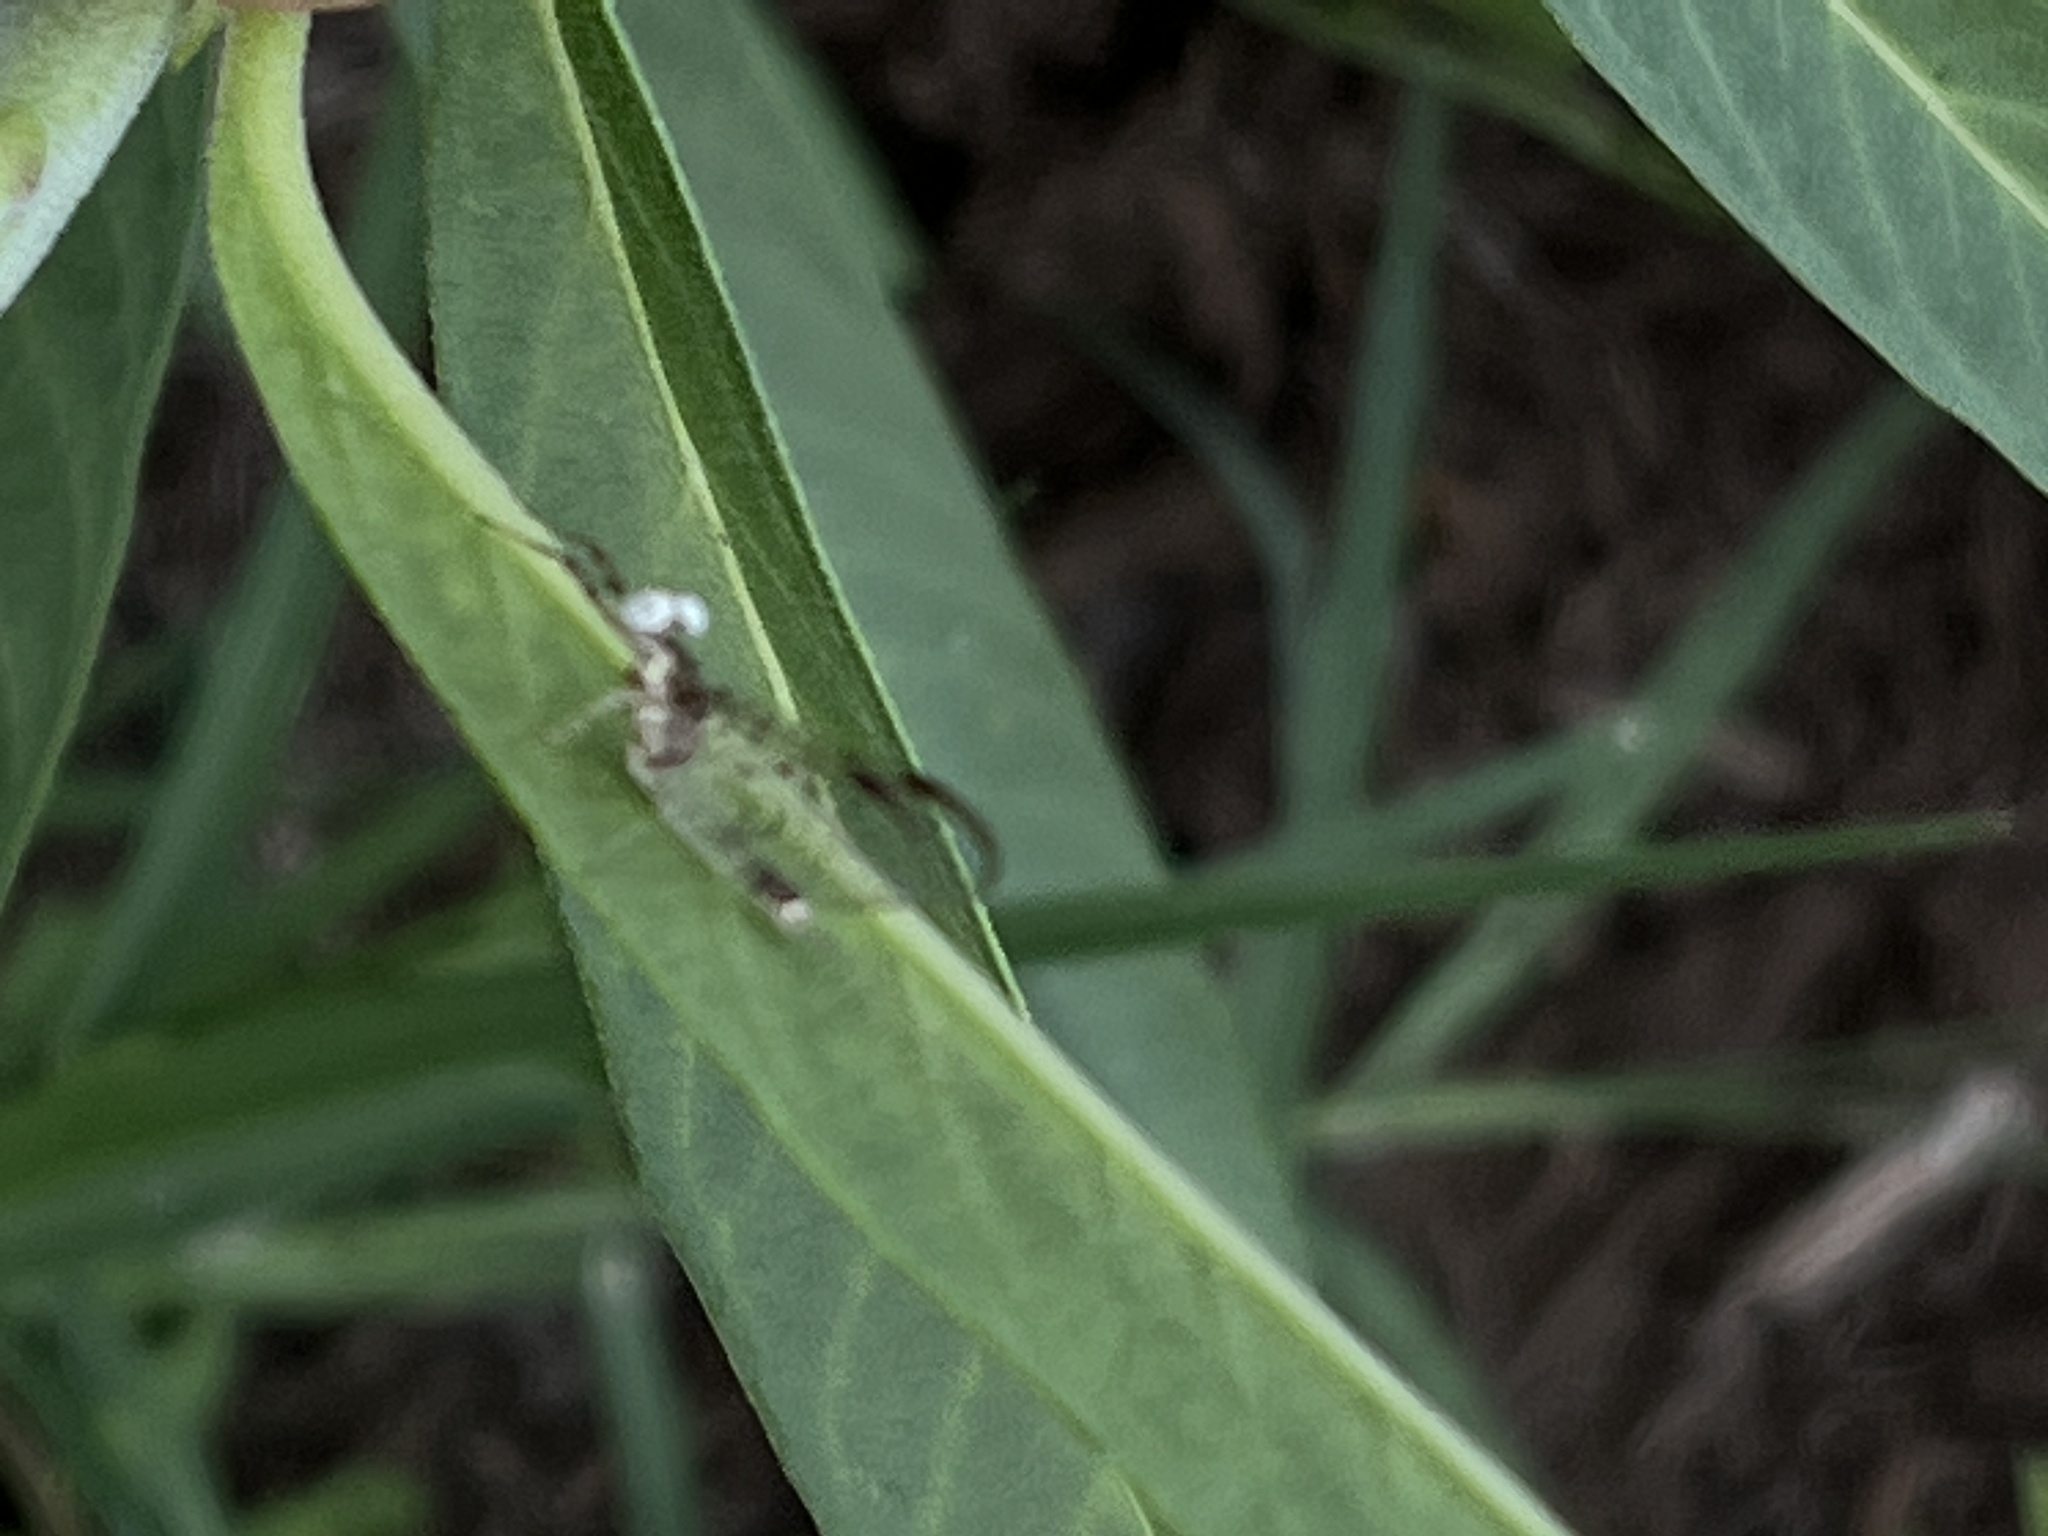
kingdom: Animalia
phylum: Arthropoda
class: Insecta
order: Ephemeroptera
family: Heptageniidae
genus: Stenonema
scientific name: Stenonema femoratum
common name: Dark cahill
